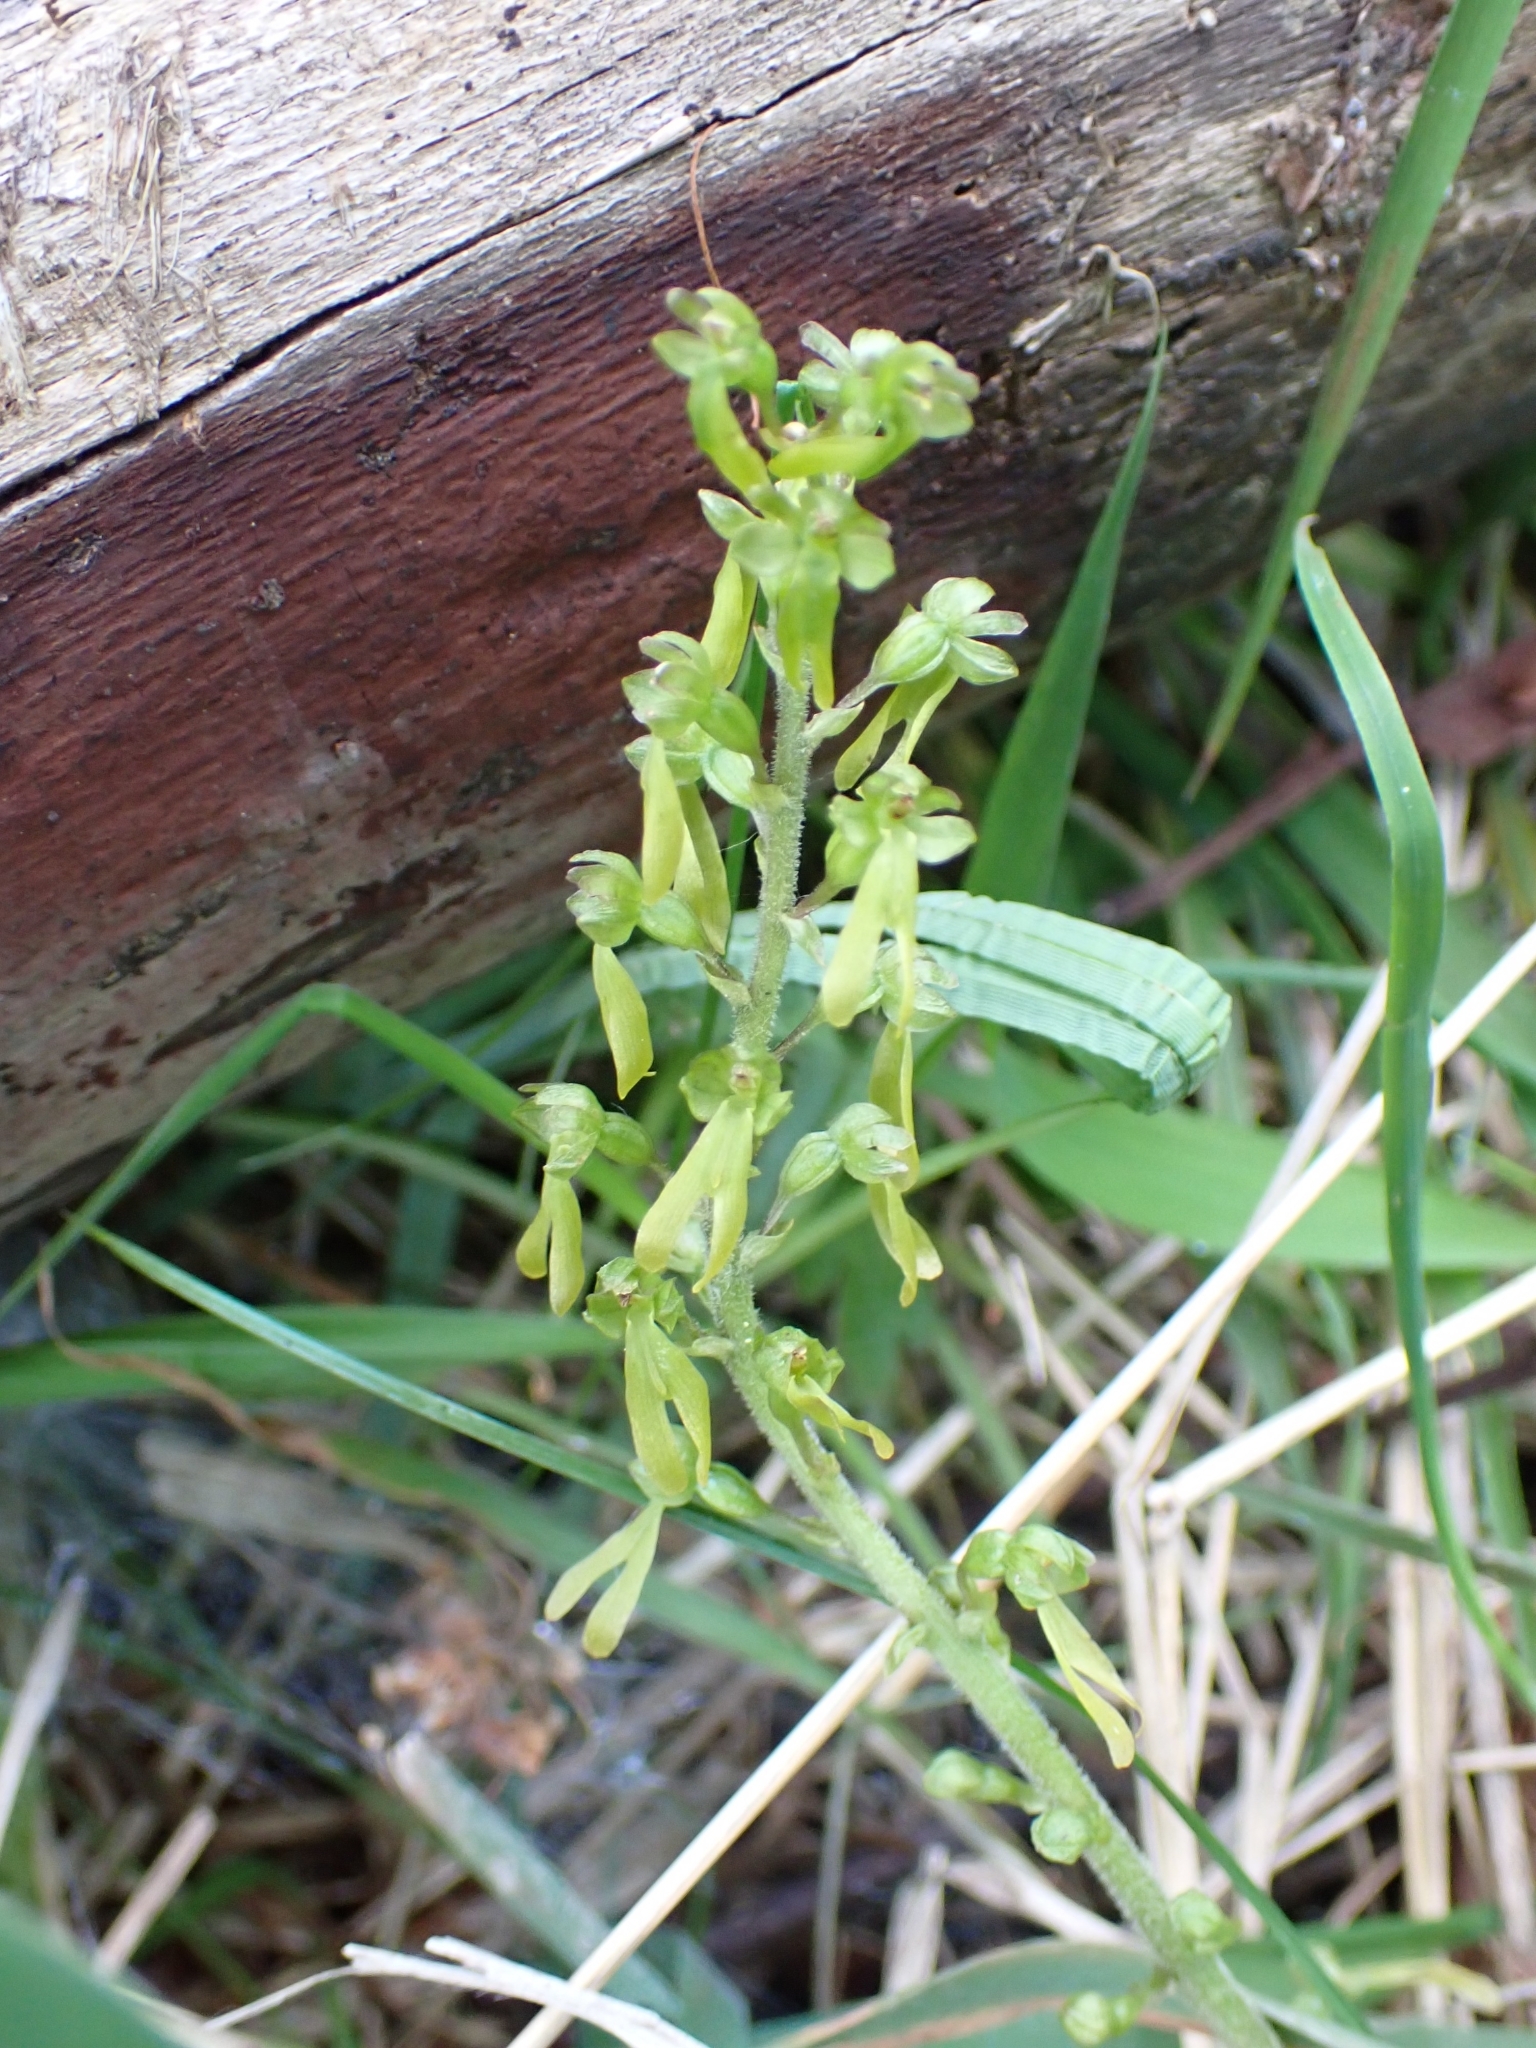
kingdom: Plantae
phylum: Tracheophyta
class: Liliopsida
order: Asparagales
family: Orchidaceae
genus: Neottia
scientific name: Neottia ovata
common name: Common twayblade
